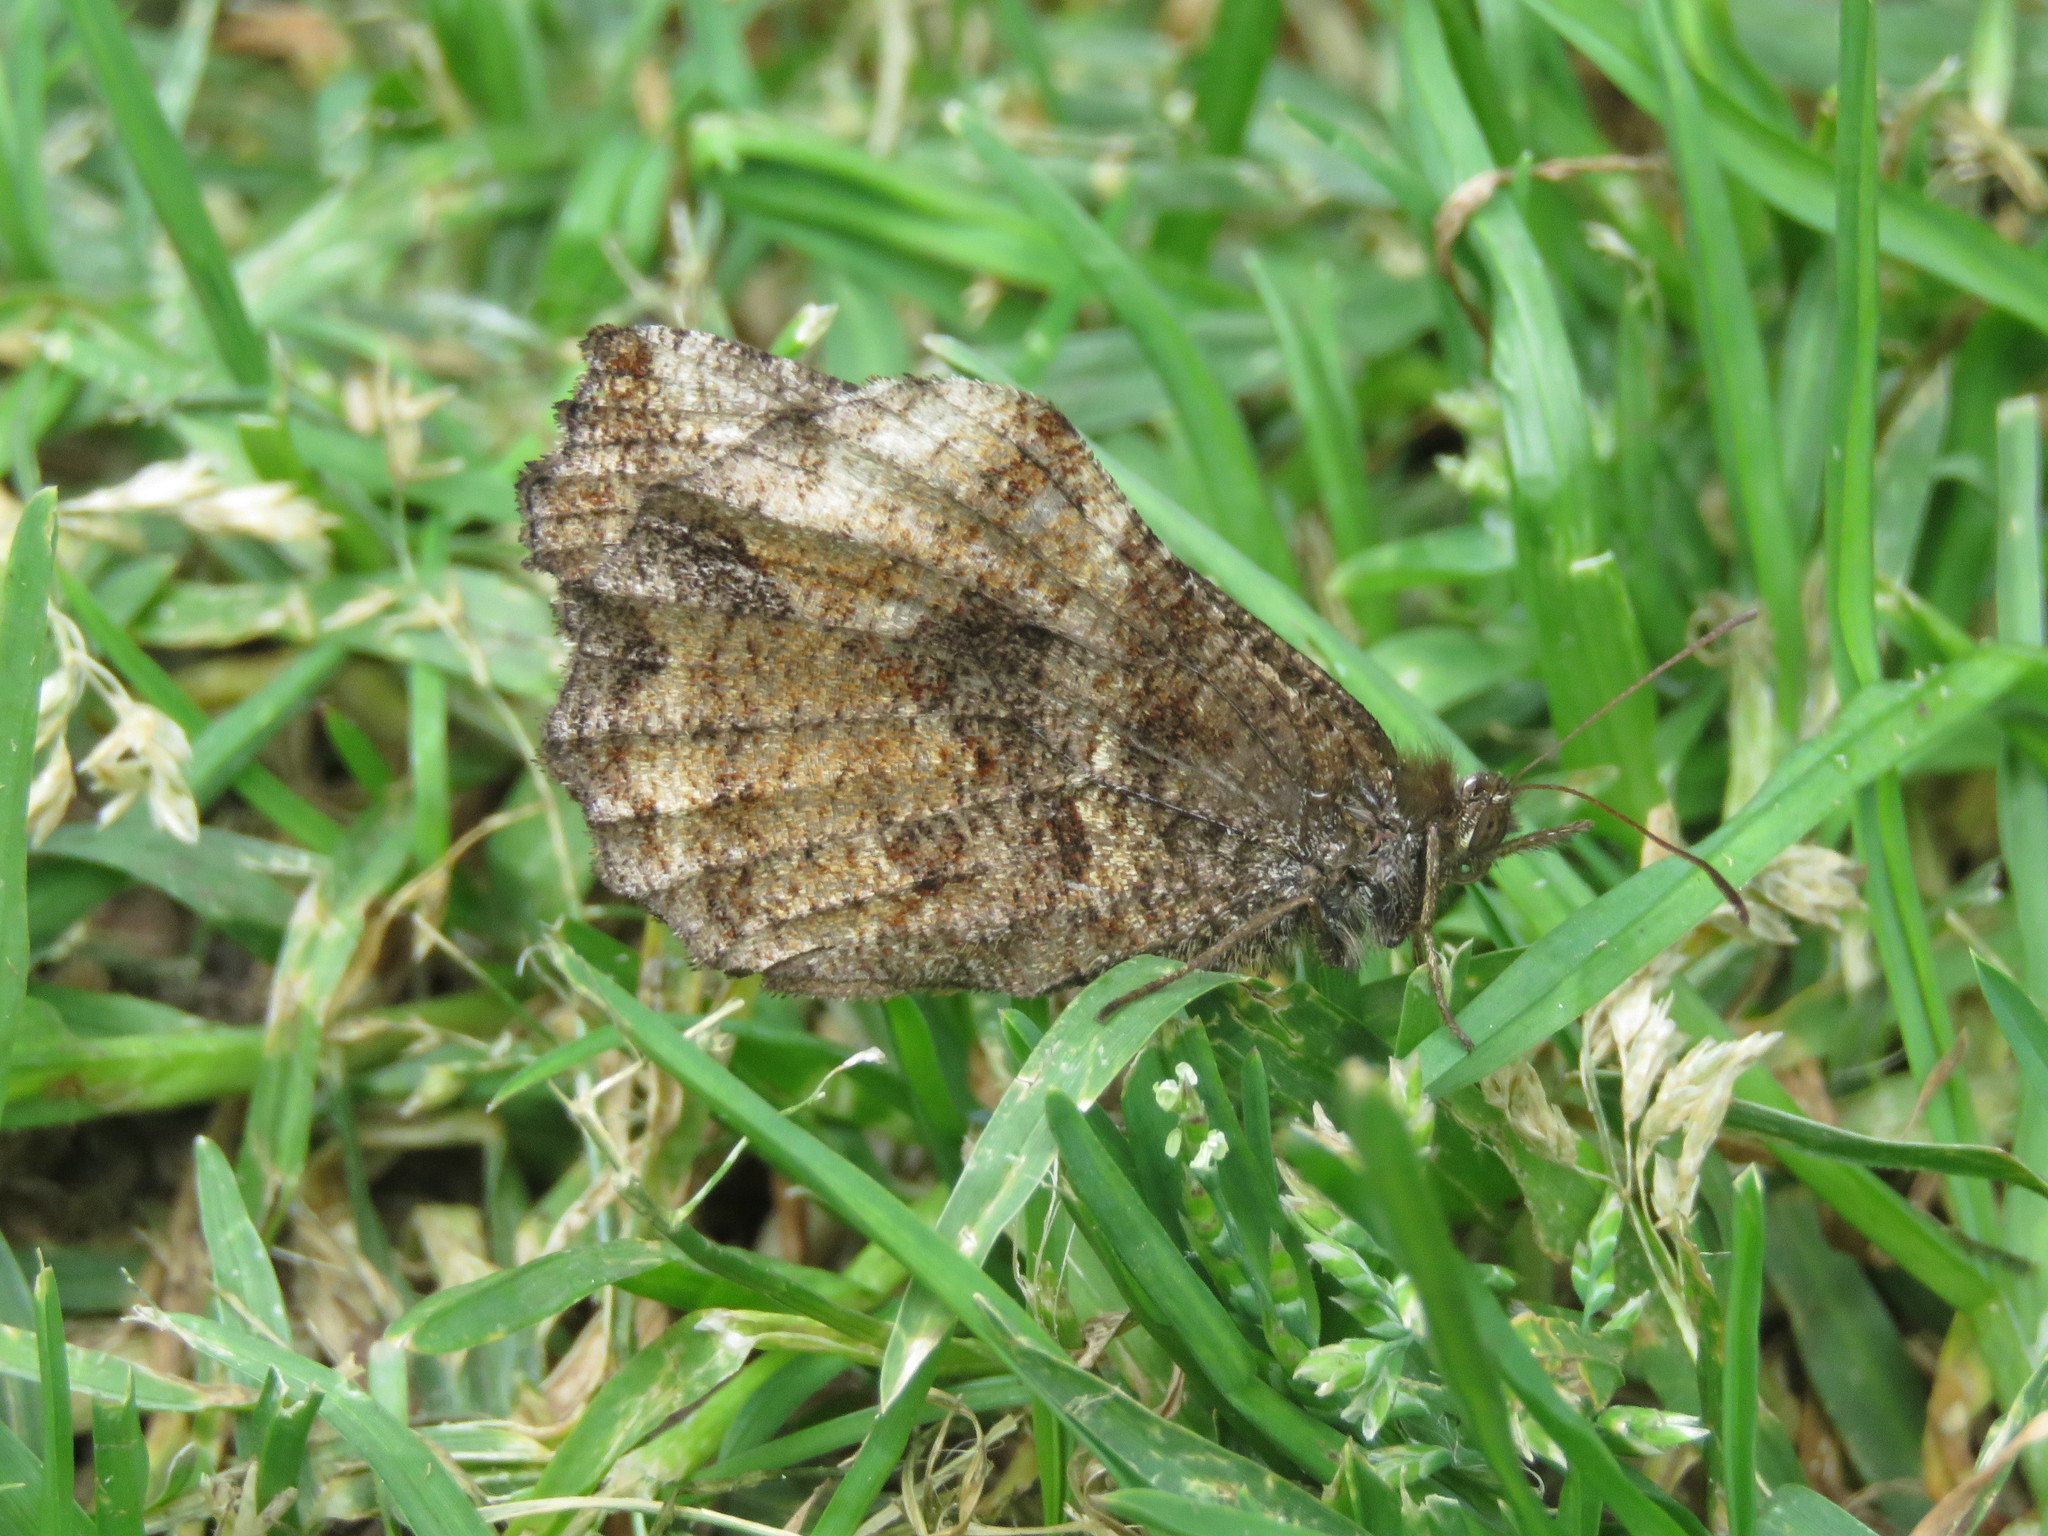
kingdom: Animalia
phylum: Arthropoda
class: Insecta
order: Lepidoptera
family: Nymphalidae
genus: Panyapedaliodes
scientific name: Panyapedaliodes drymaea
